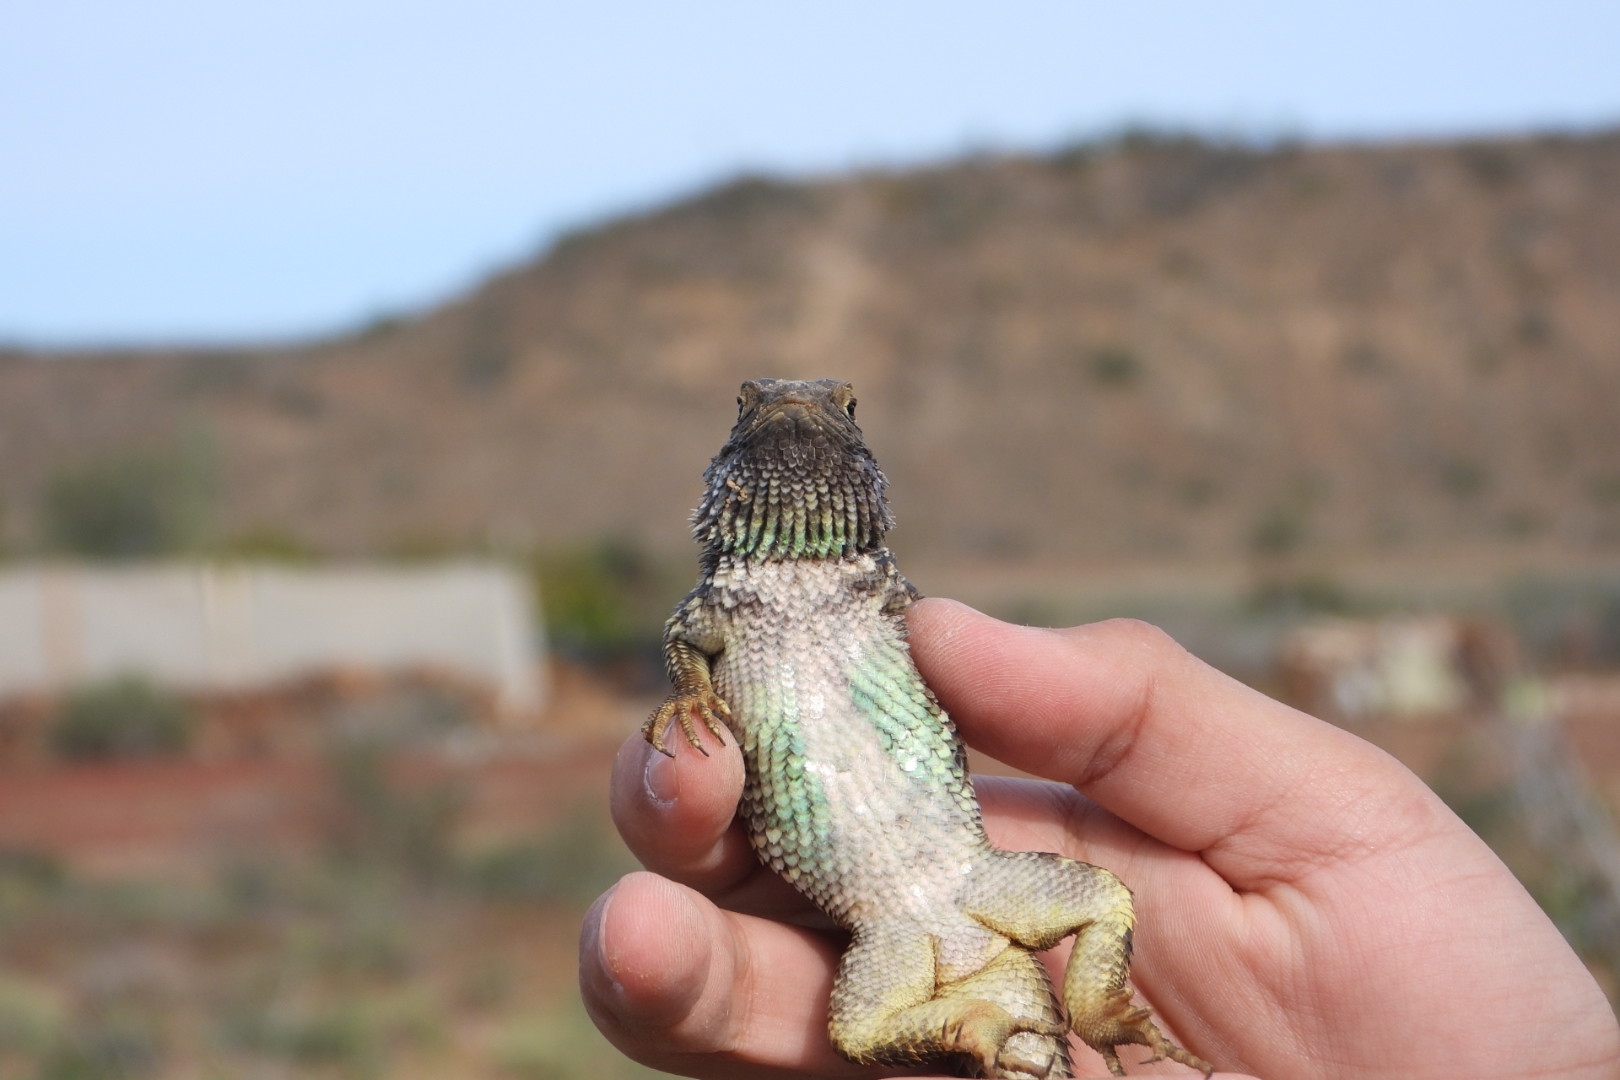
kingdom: Animalia
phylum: Chordata
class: Squamata
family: Phrynosomatidae
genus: Sceloporus
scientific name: Sceloporus zosteromus
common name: Baja spiny lizard
